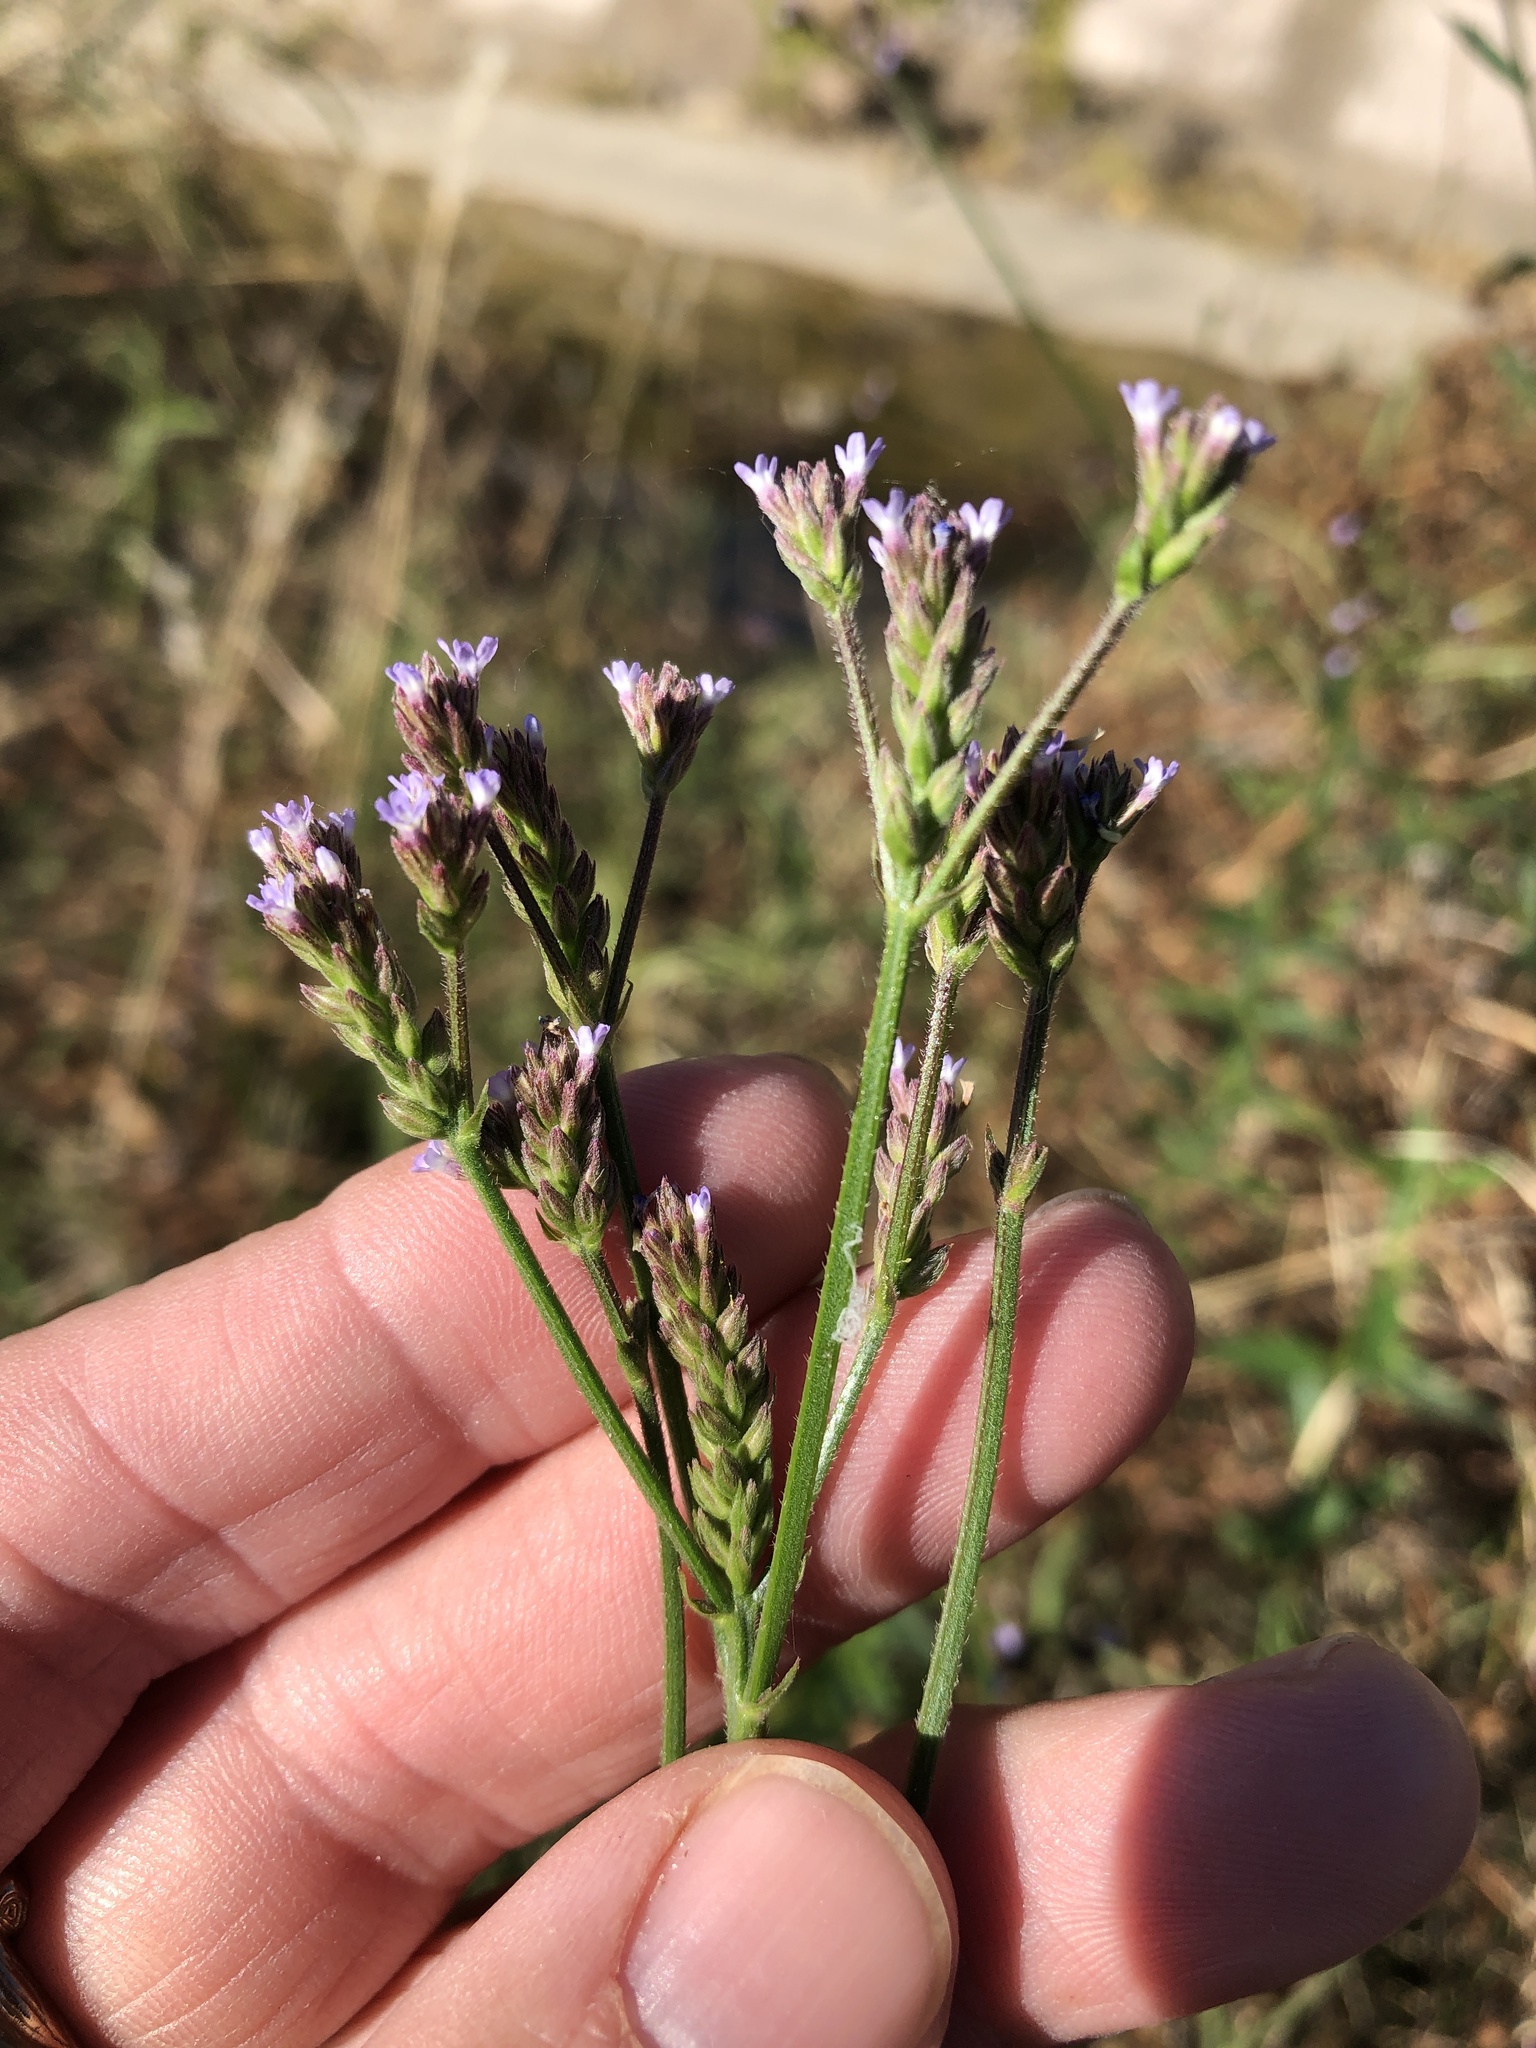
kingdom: Plantae
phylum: Tracheophyta
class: Magnoliopsida
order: Lamiales
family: Verbenaceae
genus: Verbena
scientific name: Verbena brasiliensis
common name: Brazilian vervain
